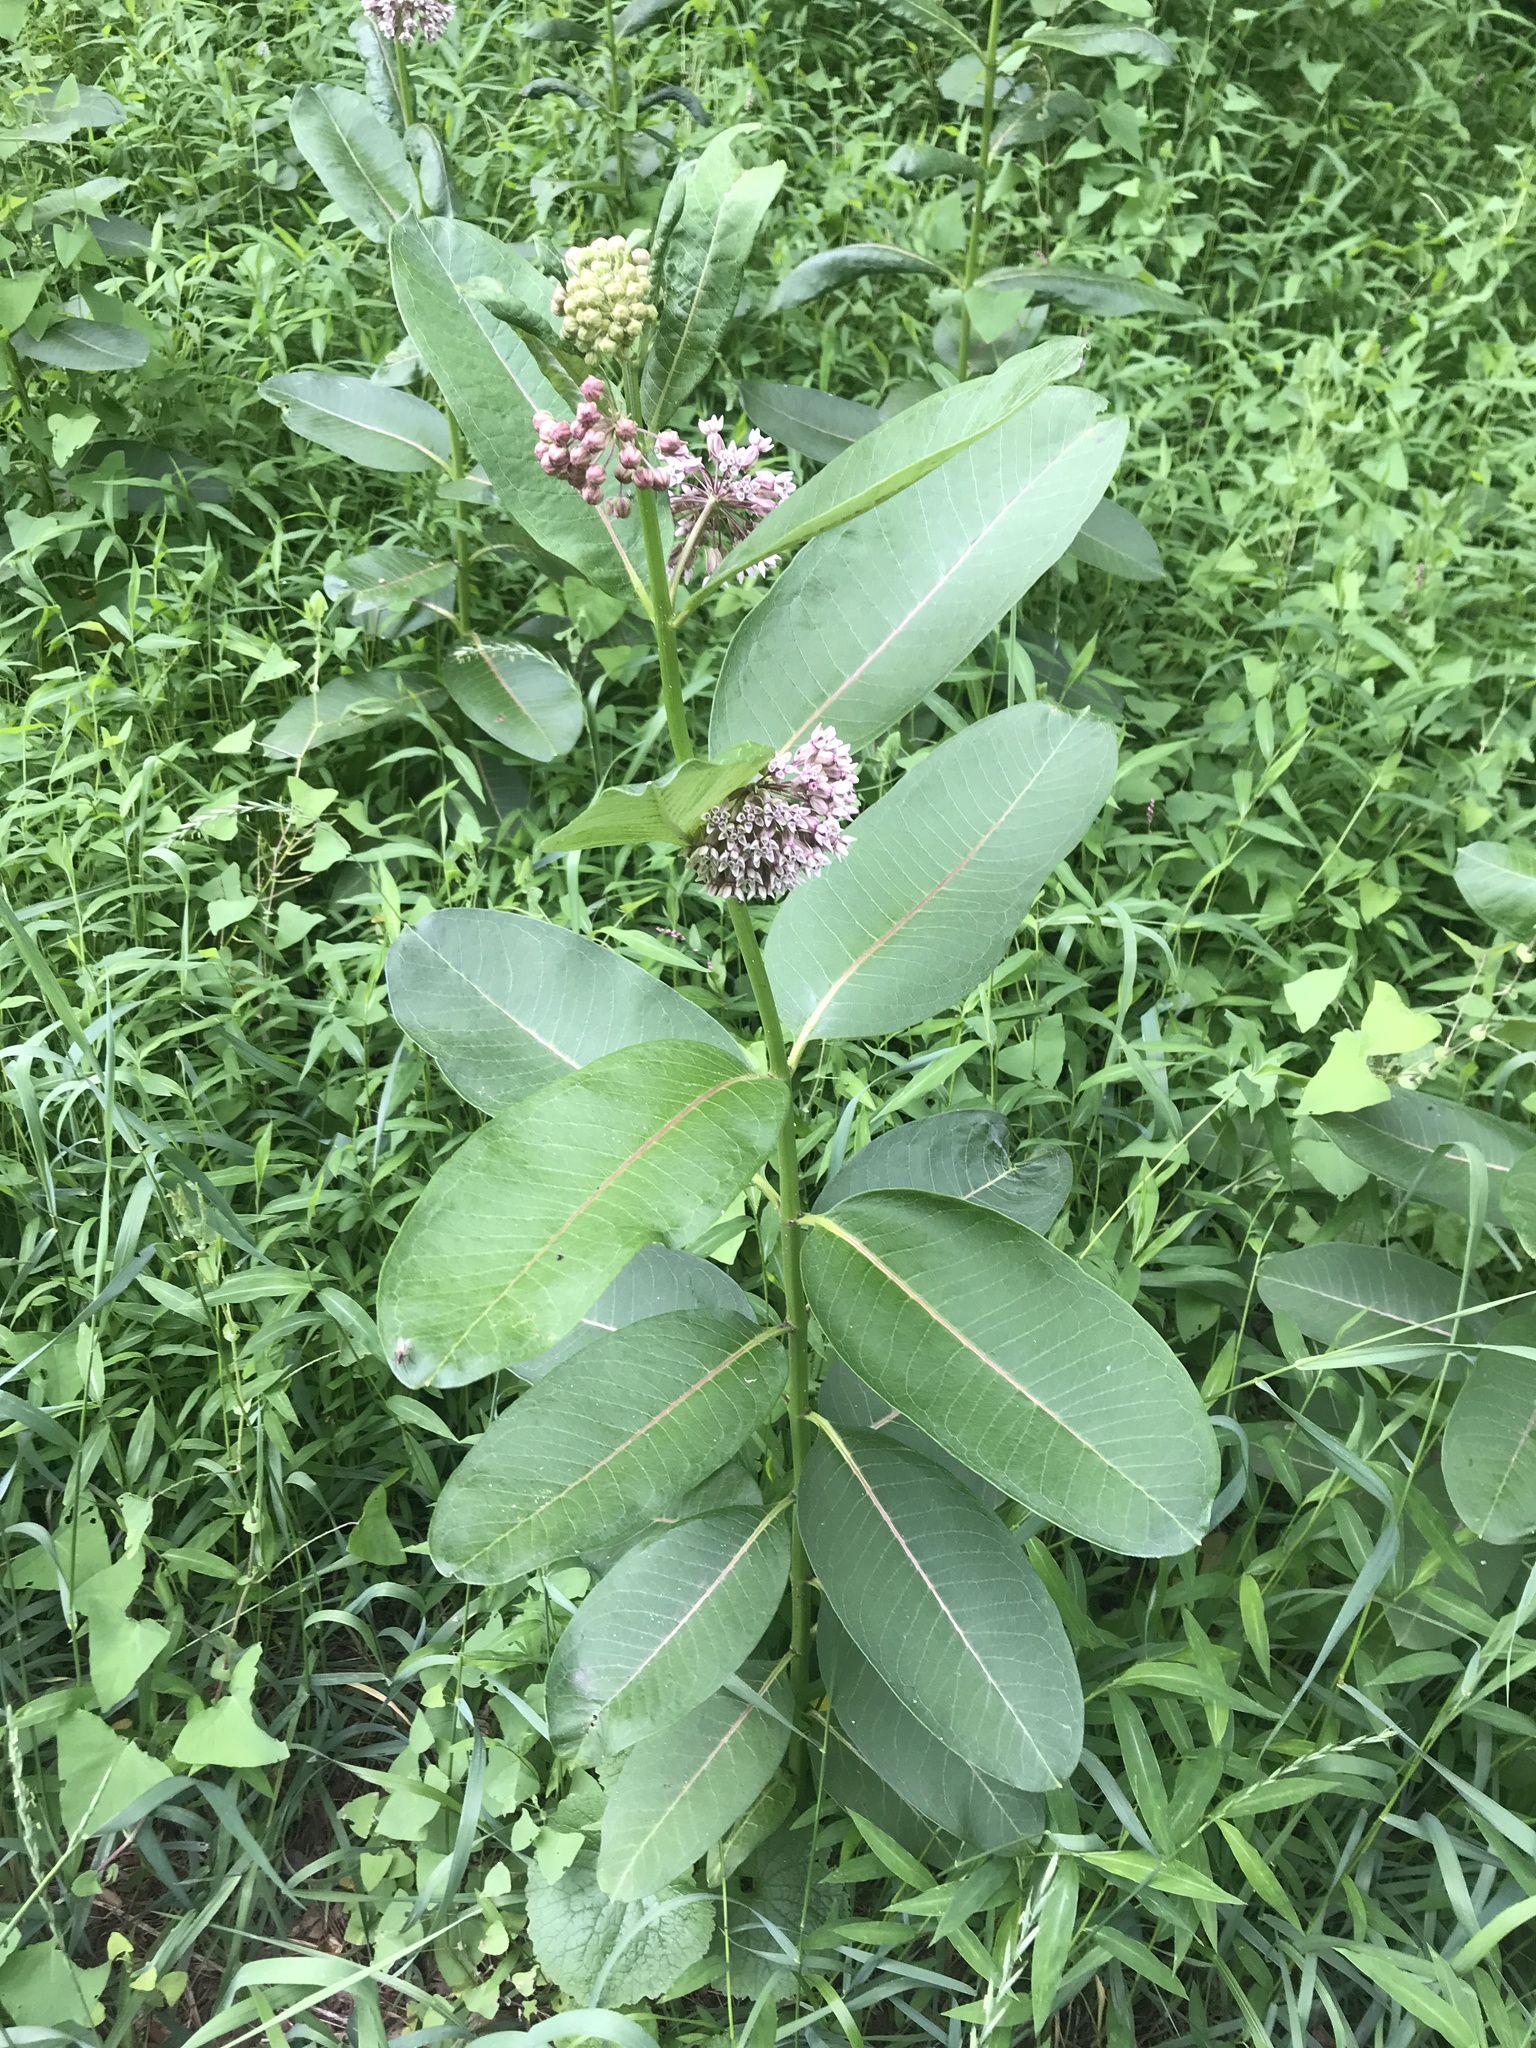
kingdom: Plantae
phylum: Tracheophyta
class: Magnoliopsida
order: Gentianales
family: Apocynaceae
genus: Asclepias
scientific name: Asclepias syriaca
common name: Common milkweed
